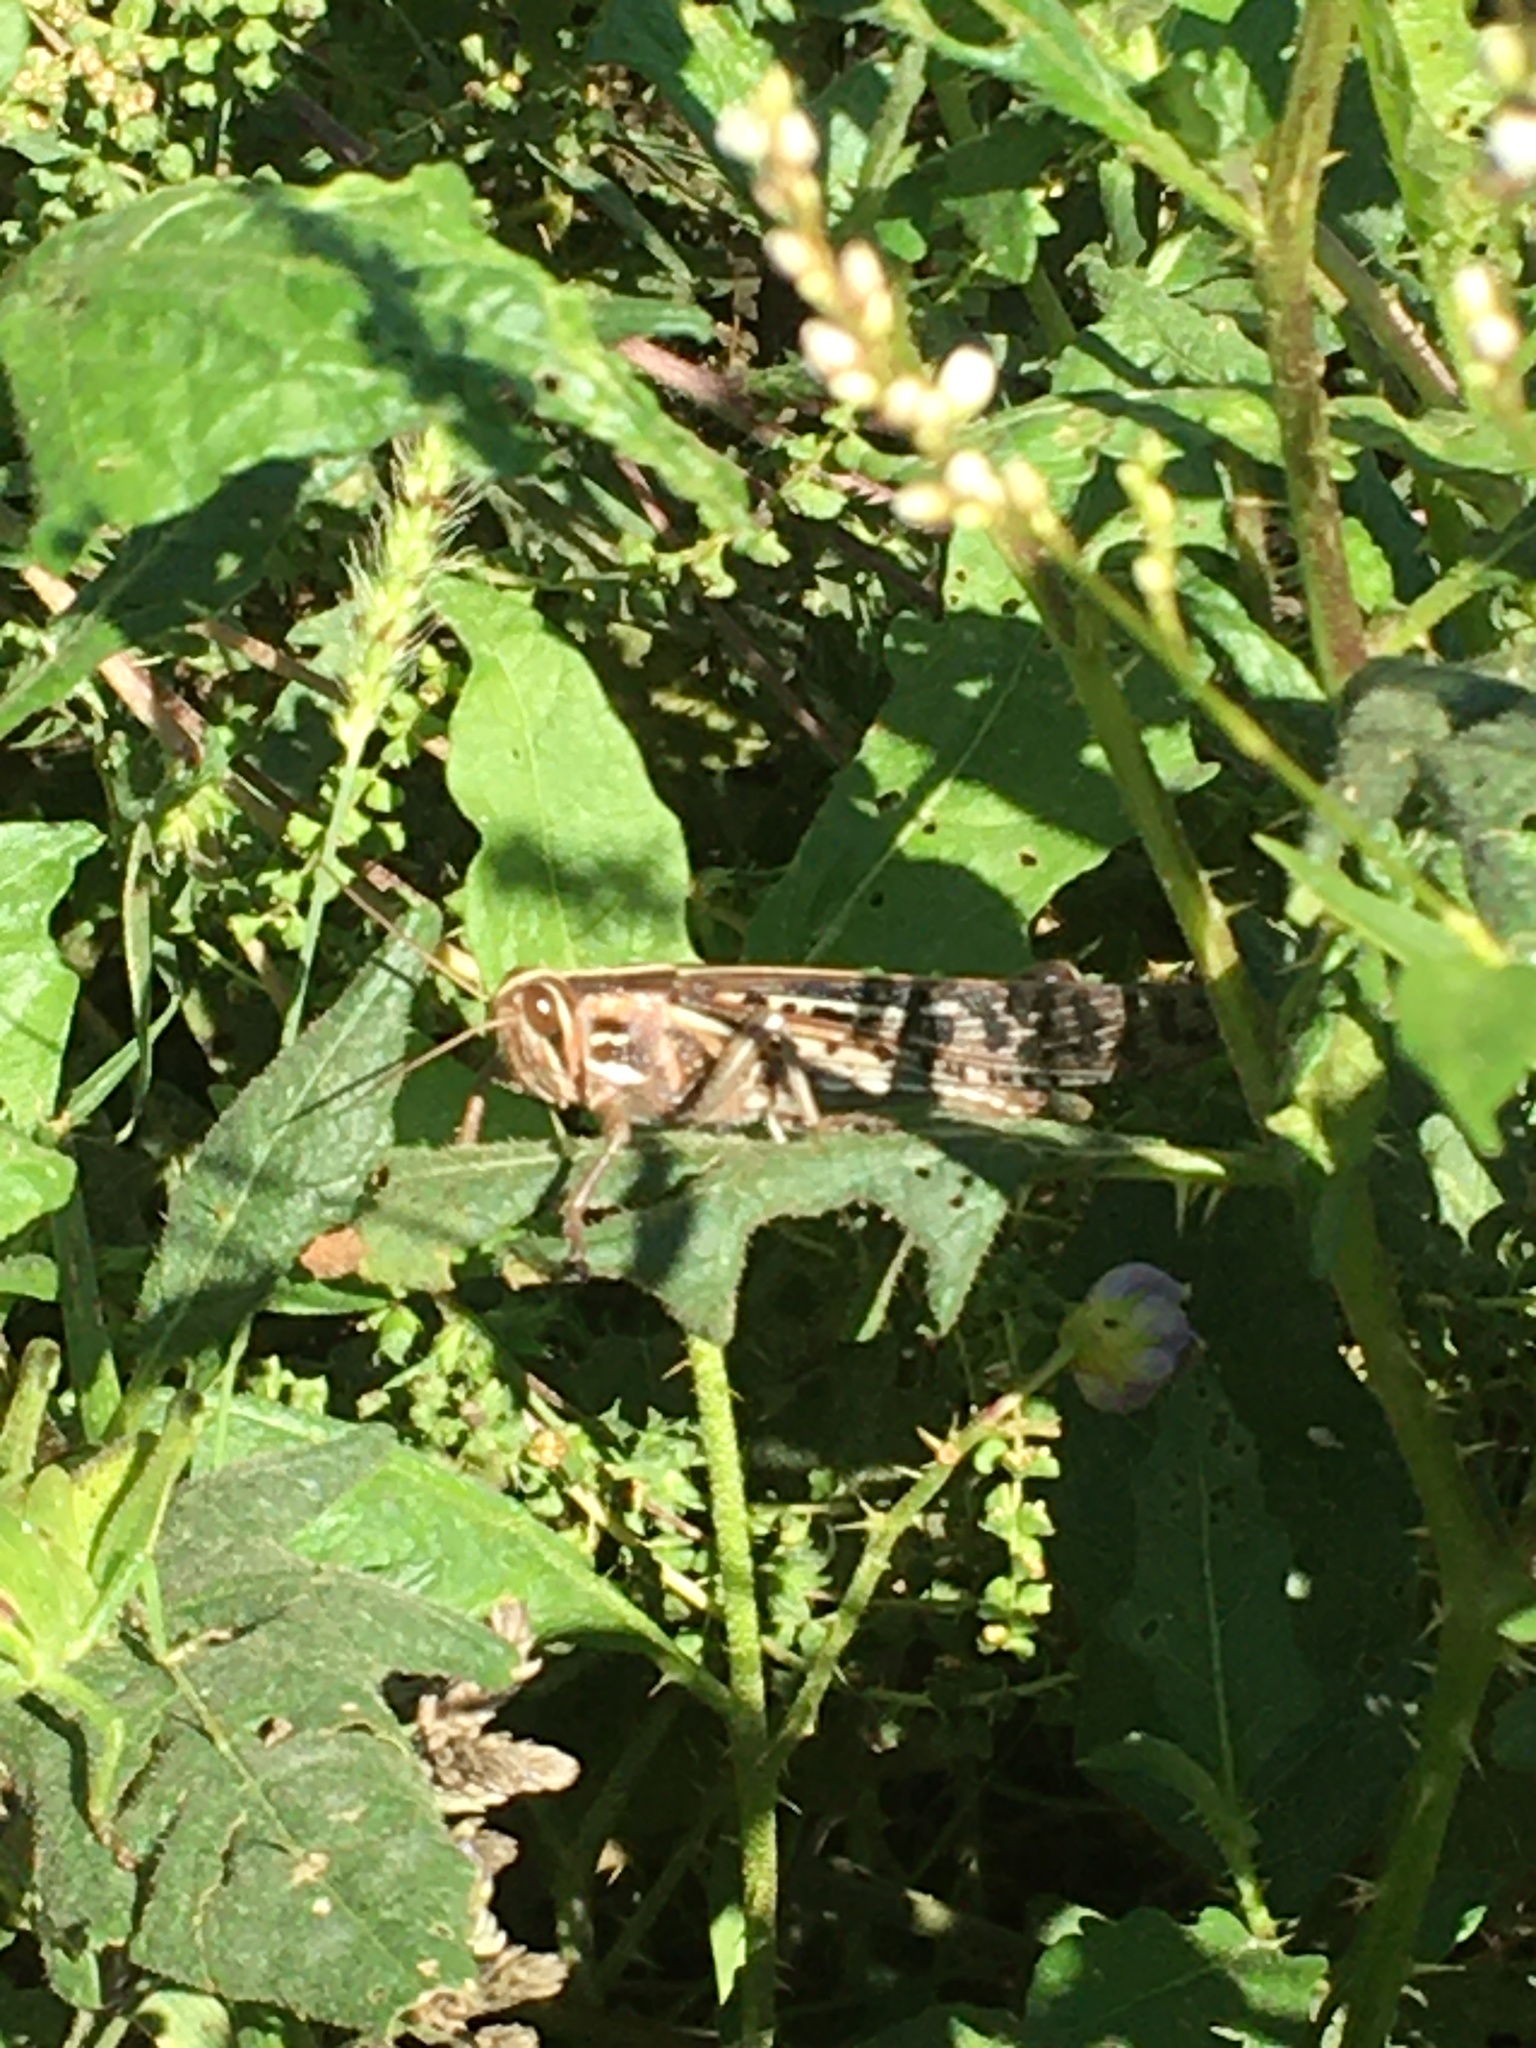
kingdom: Animalia
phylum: Arthropoda
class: Insecta
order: Orthoptera
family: Acrididae
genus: Schistocerca
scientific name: Schistocerca americana
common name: American bird locust
